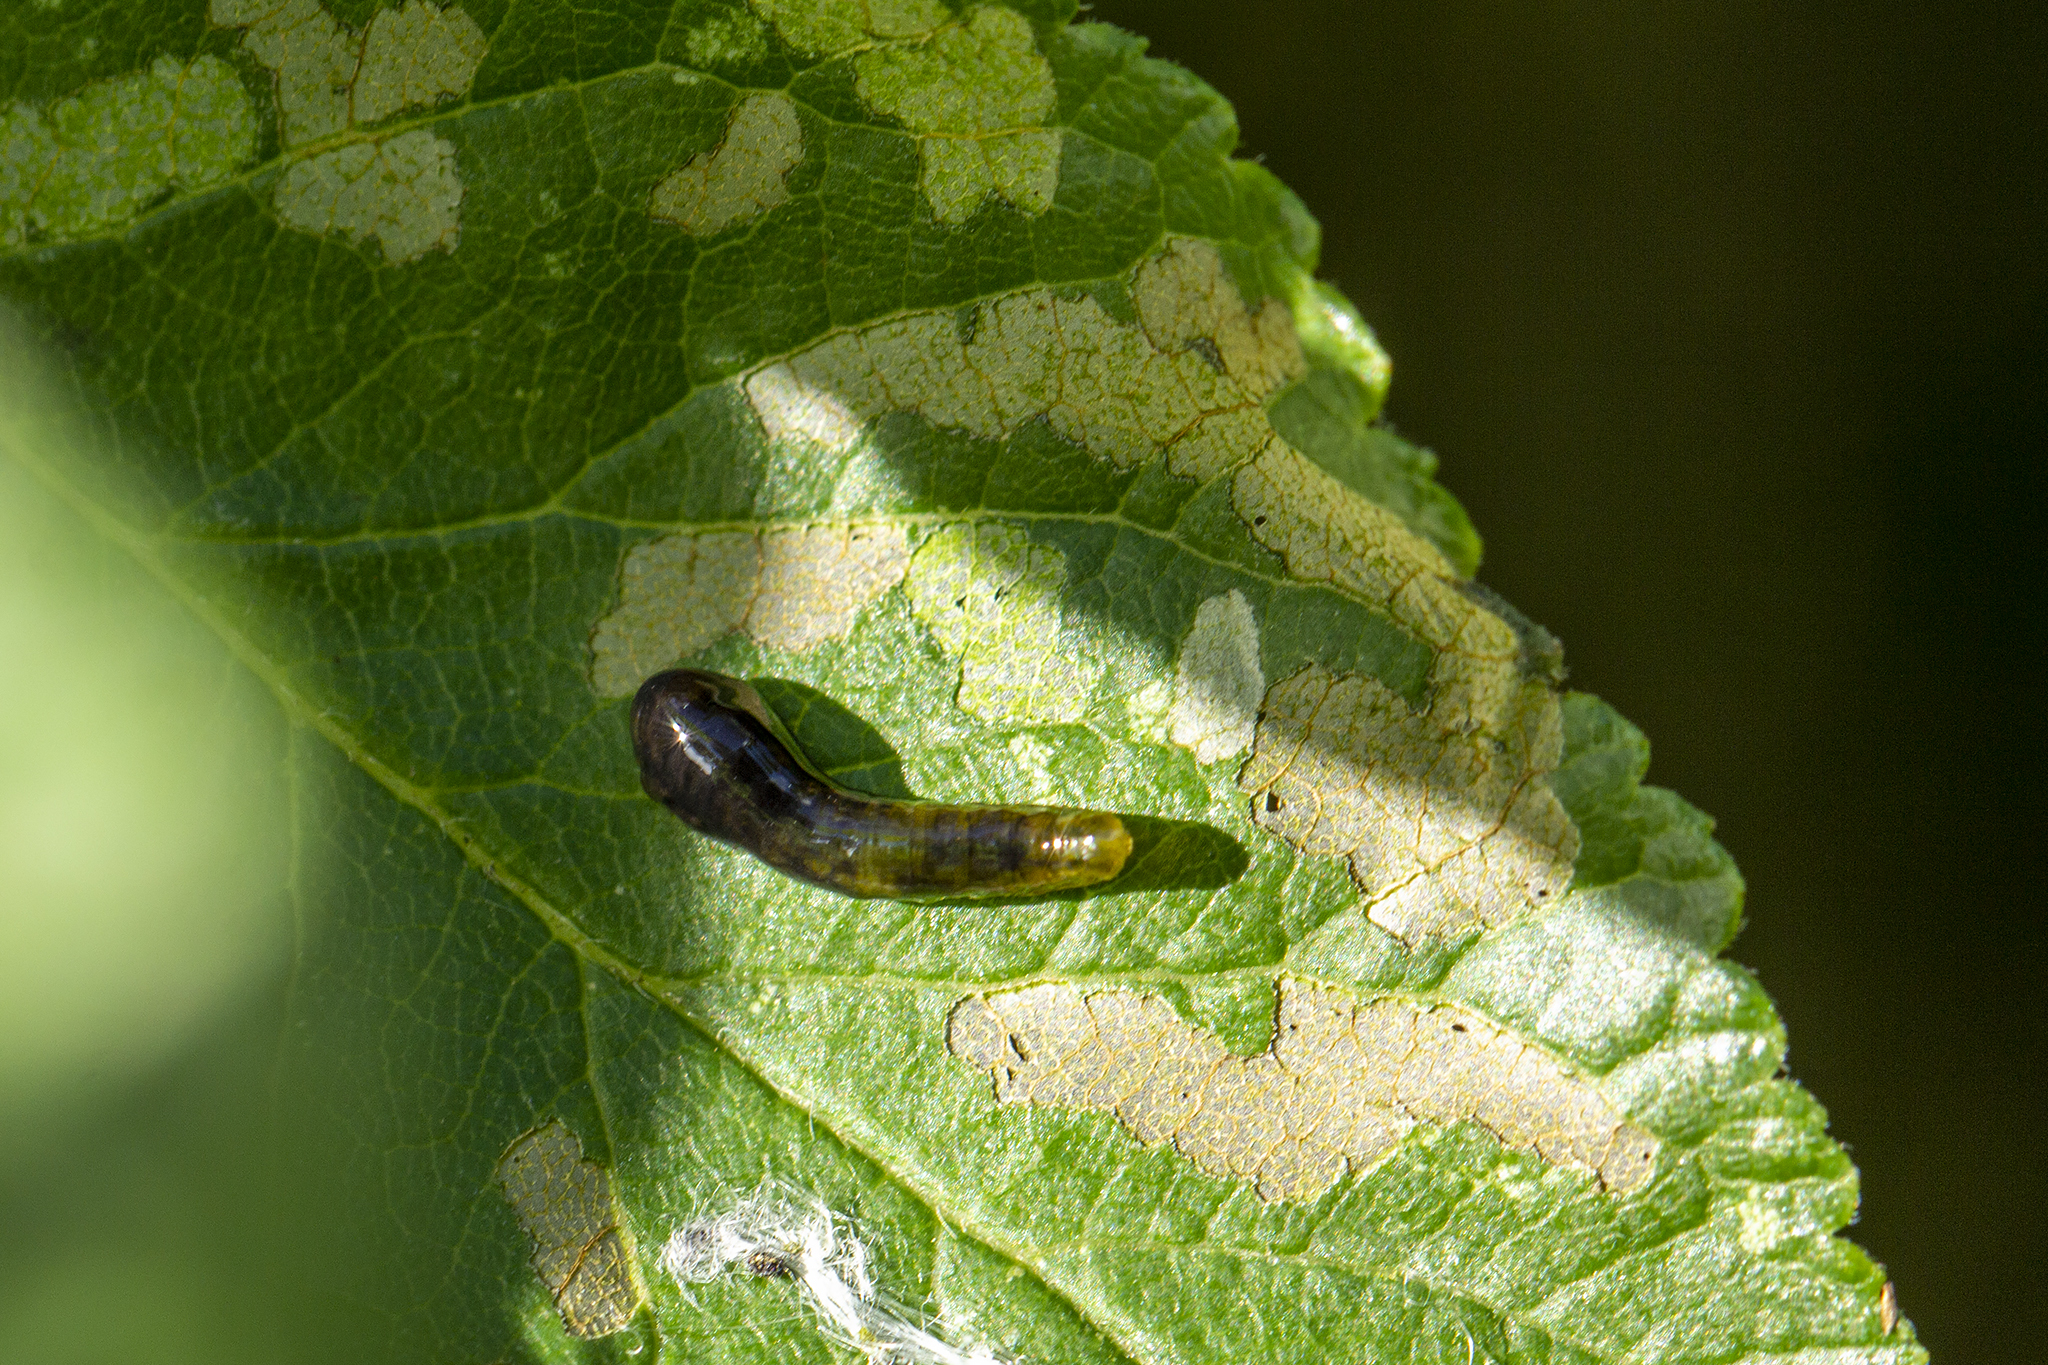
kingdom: Animalia
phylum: Arthropoda
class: Insecta
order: Hymenoptera
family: Tenthredinidae
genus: Caliroa
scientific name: Caliroa cerasi
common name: Pear sawfly
